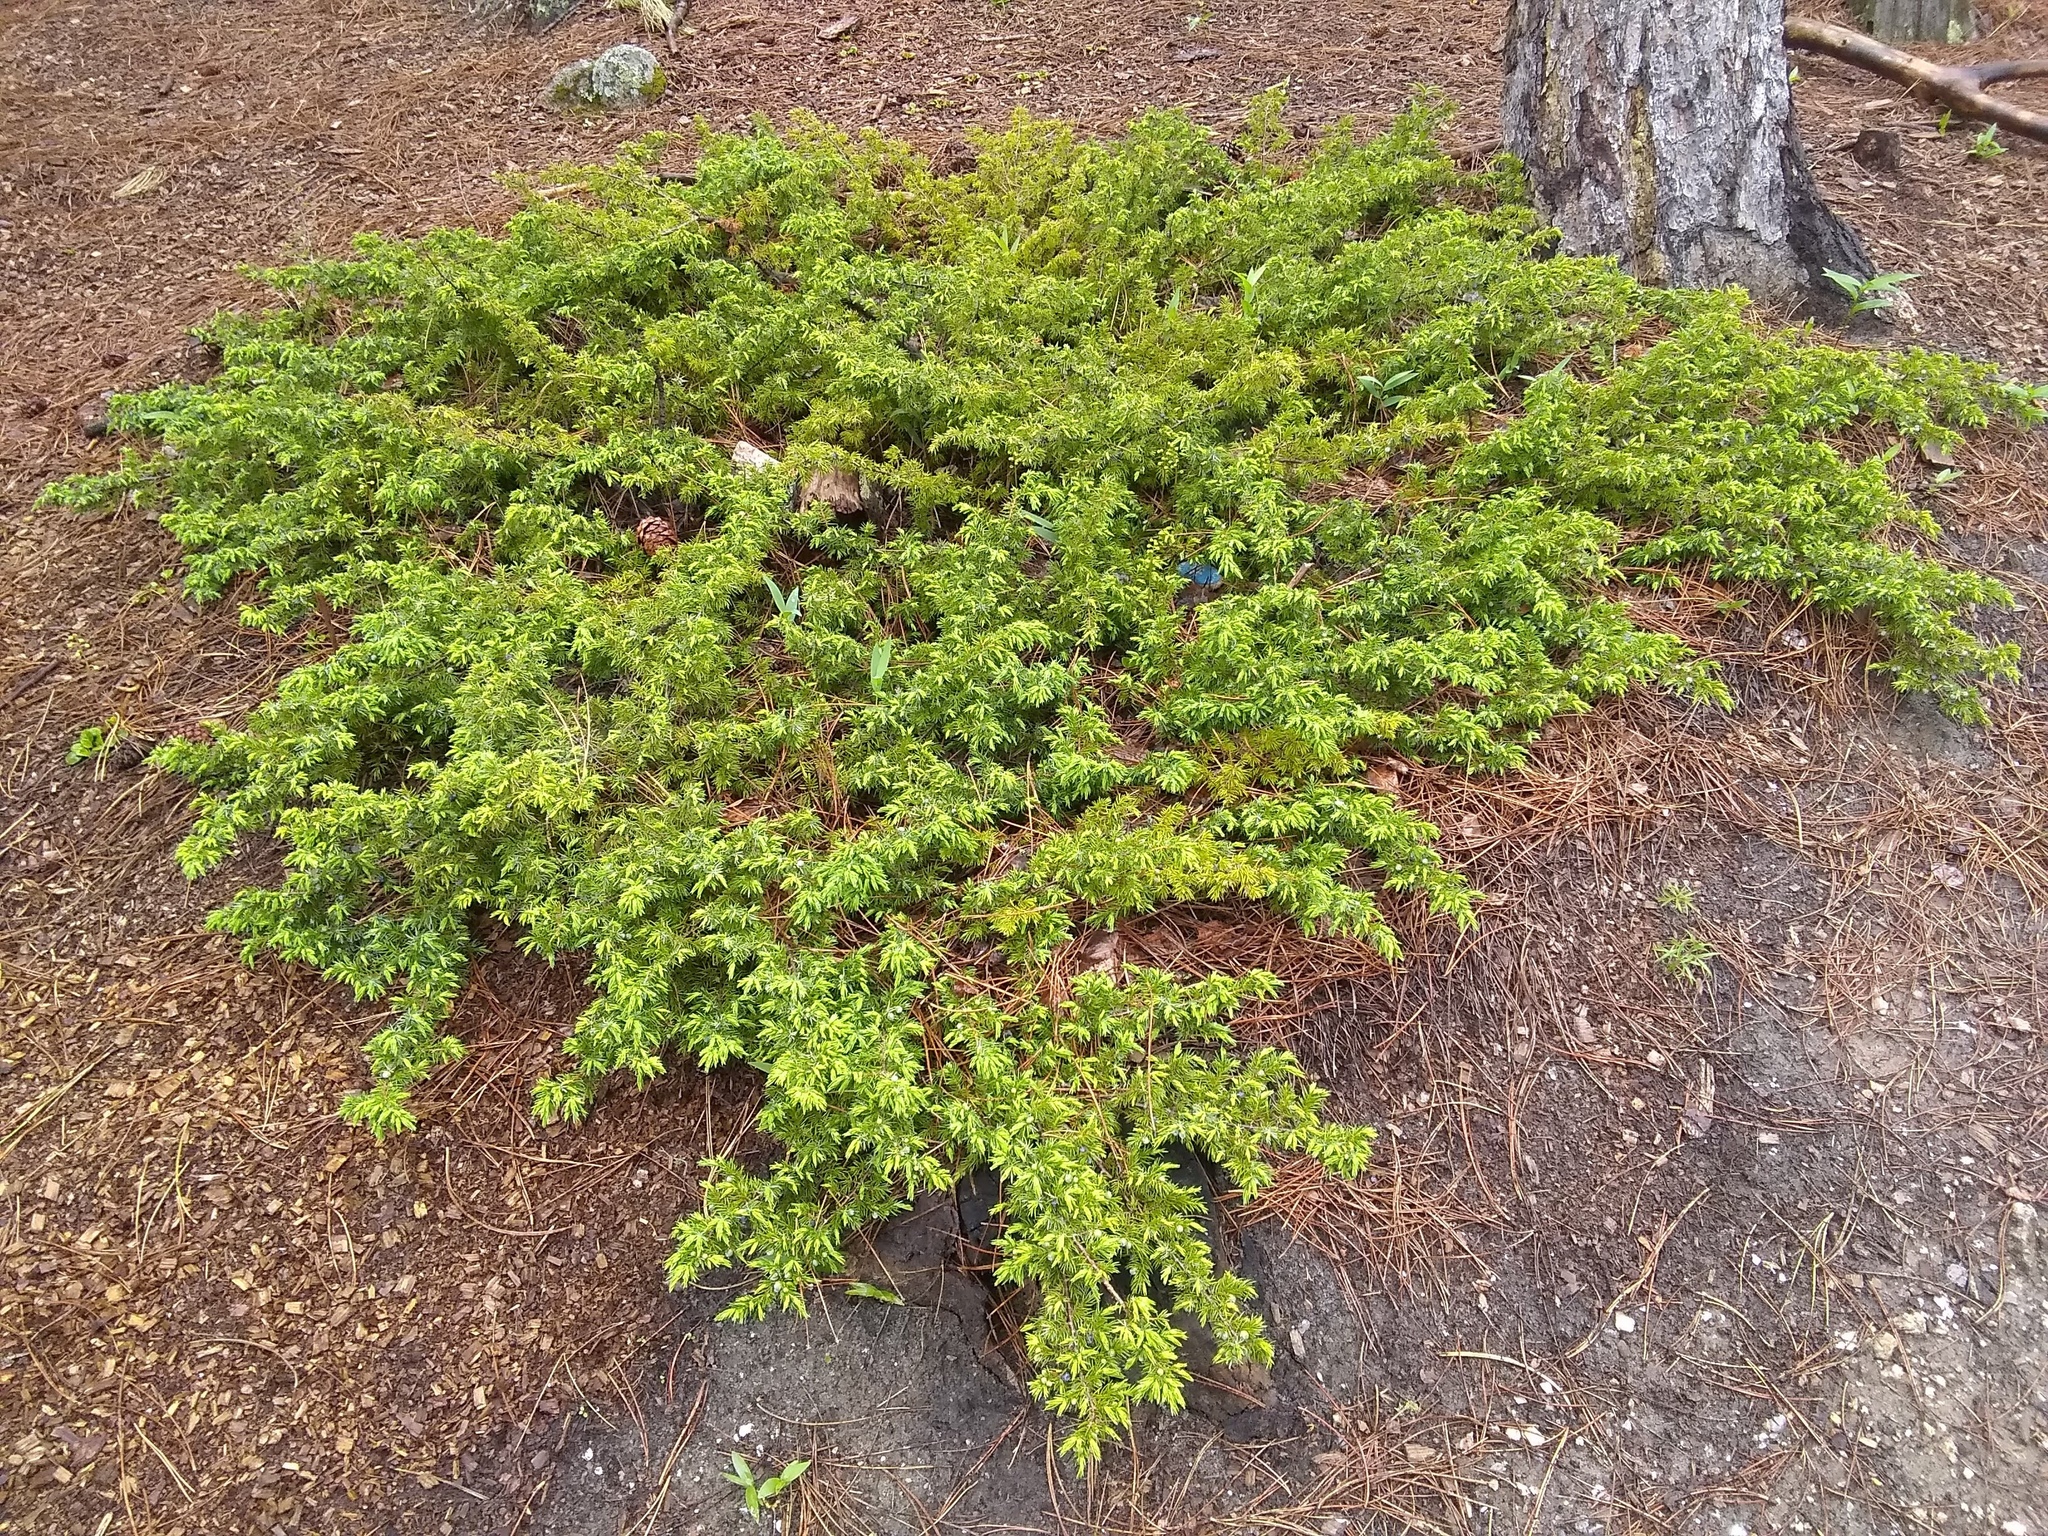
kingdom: Plantae
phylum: Tracheophyta
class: Pinopsida
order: Pinales
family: Cupressaceae
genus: Juniperus
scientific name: Juniperus communis
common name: Common juniper
